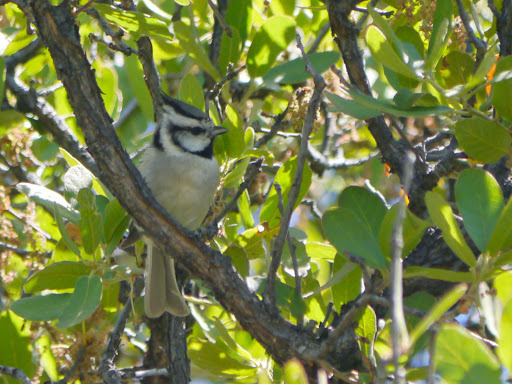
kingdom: Animalia
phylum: Chordata
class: Aves
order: Passeriformes
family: Paridae
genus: Baeolophus
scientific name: Baeolophus wollweberi
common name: Bridled titmouse
